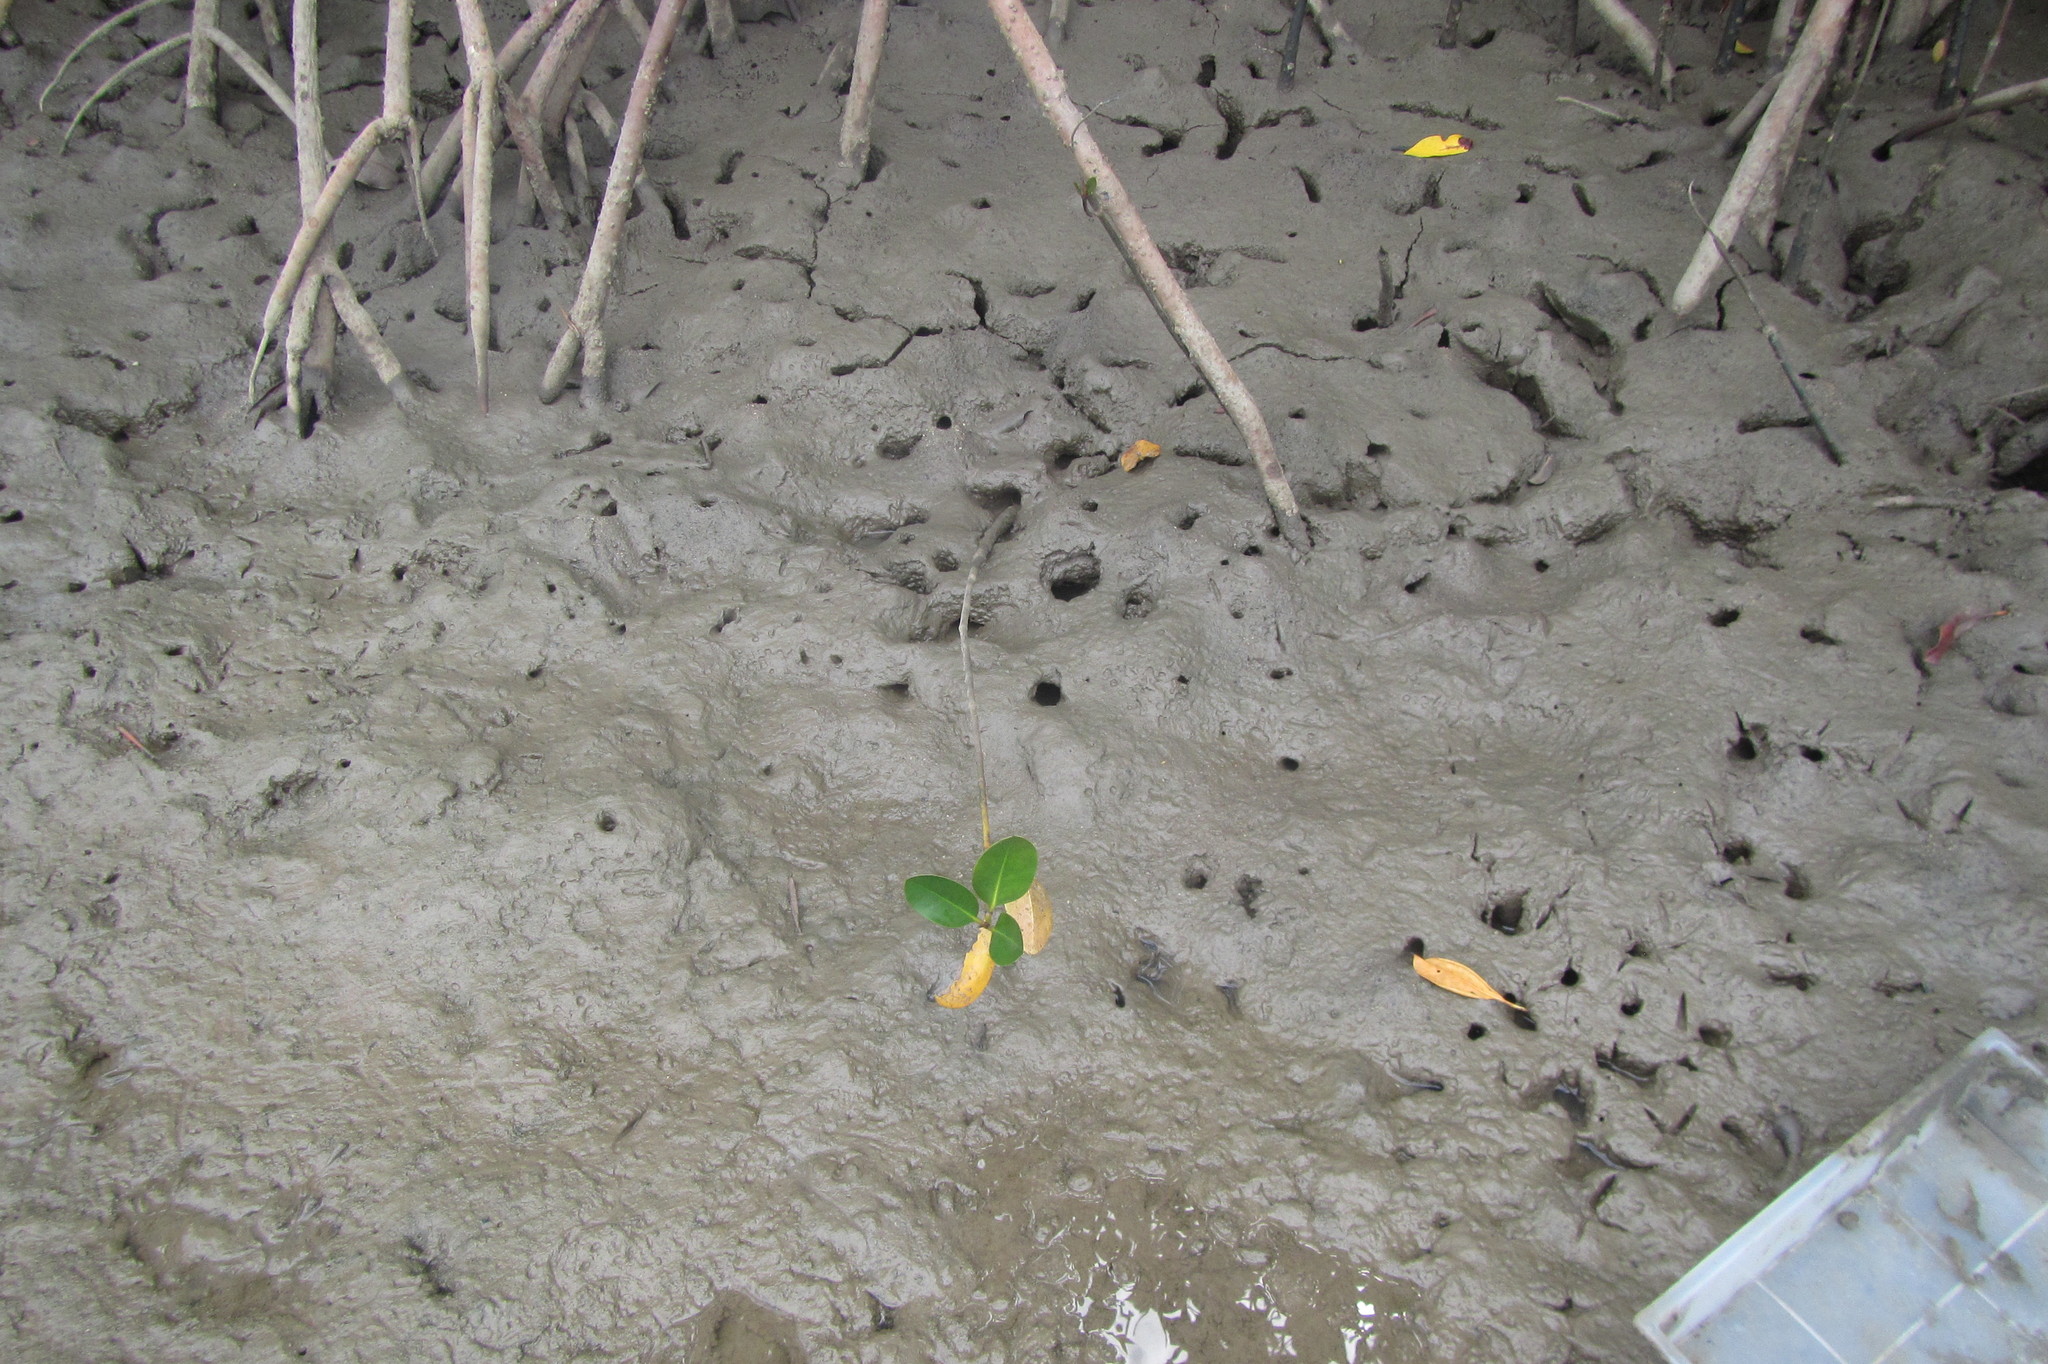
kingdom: Animalia
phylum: Chordata
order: Perciformes
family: Gobiidae
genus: Acentrogobius
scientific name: Acentrogobius moloanus
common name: Barcheek amoya
